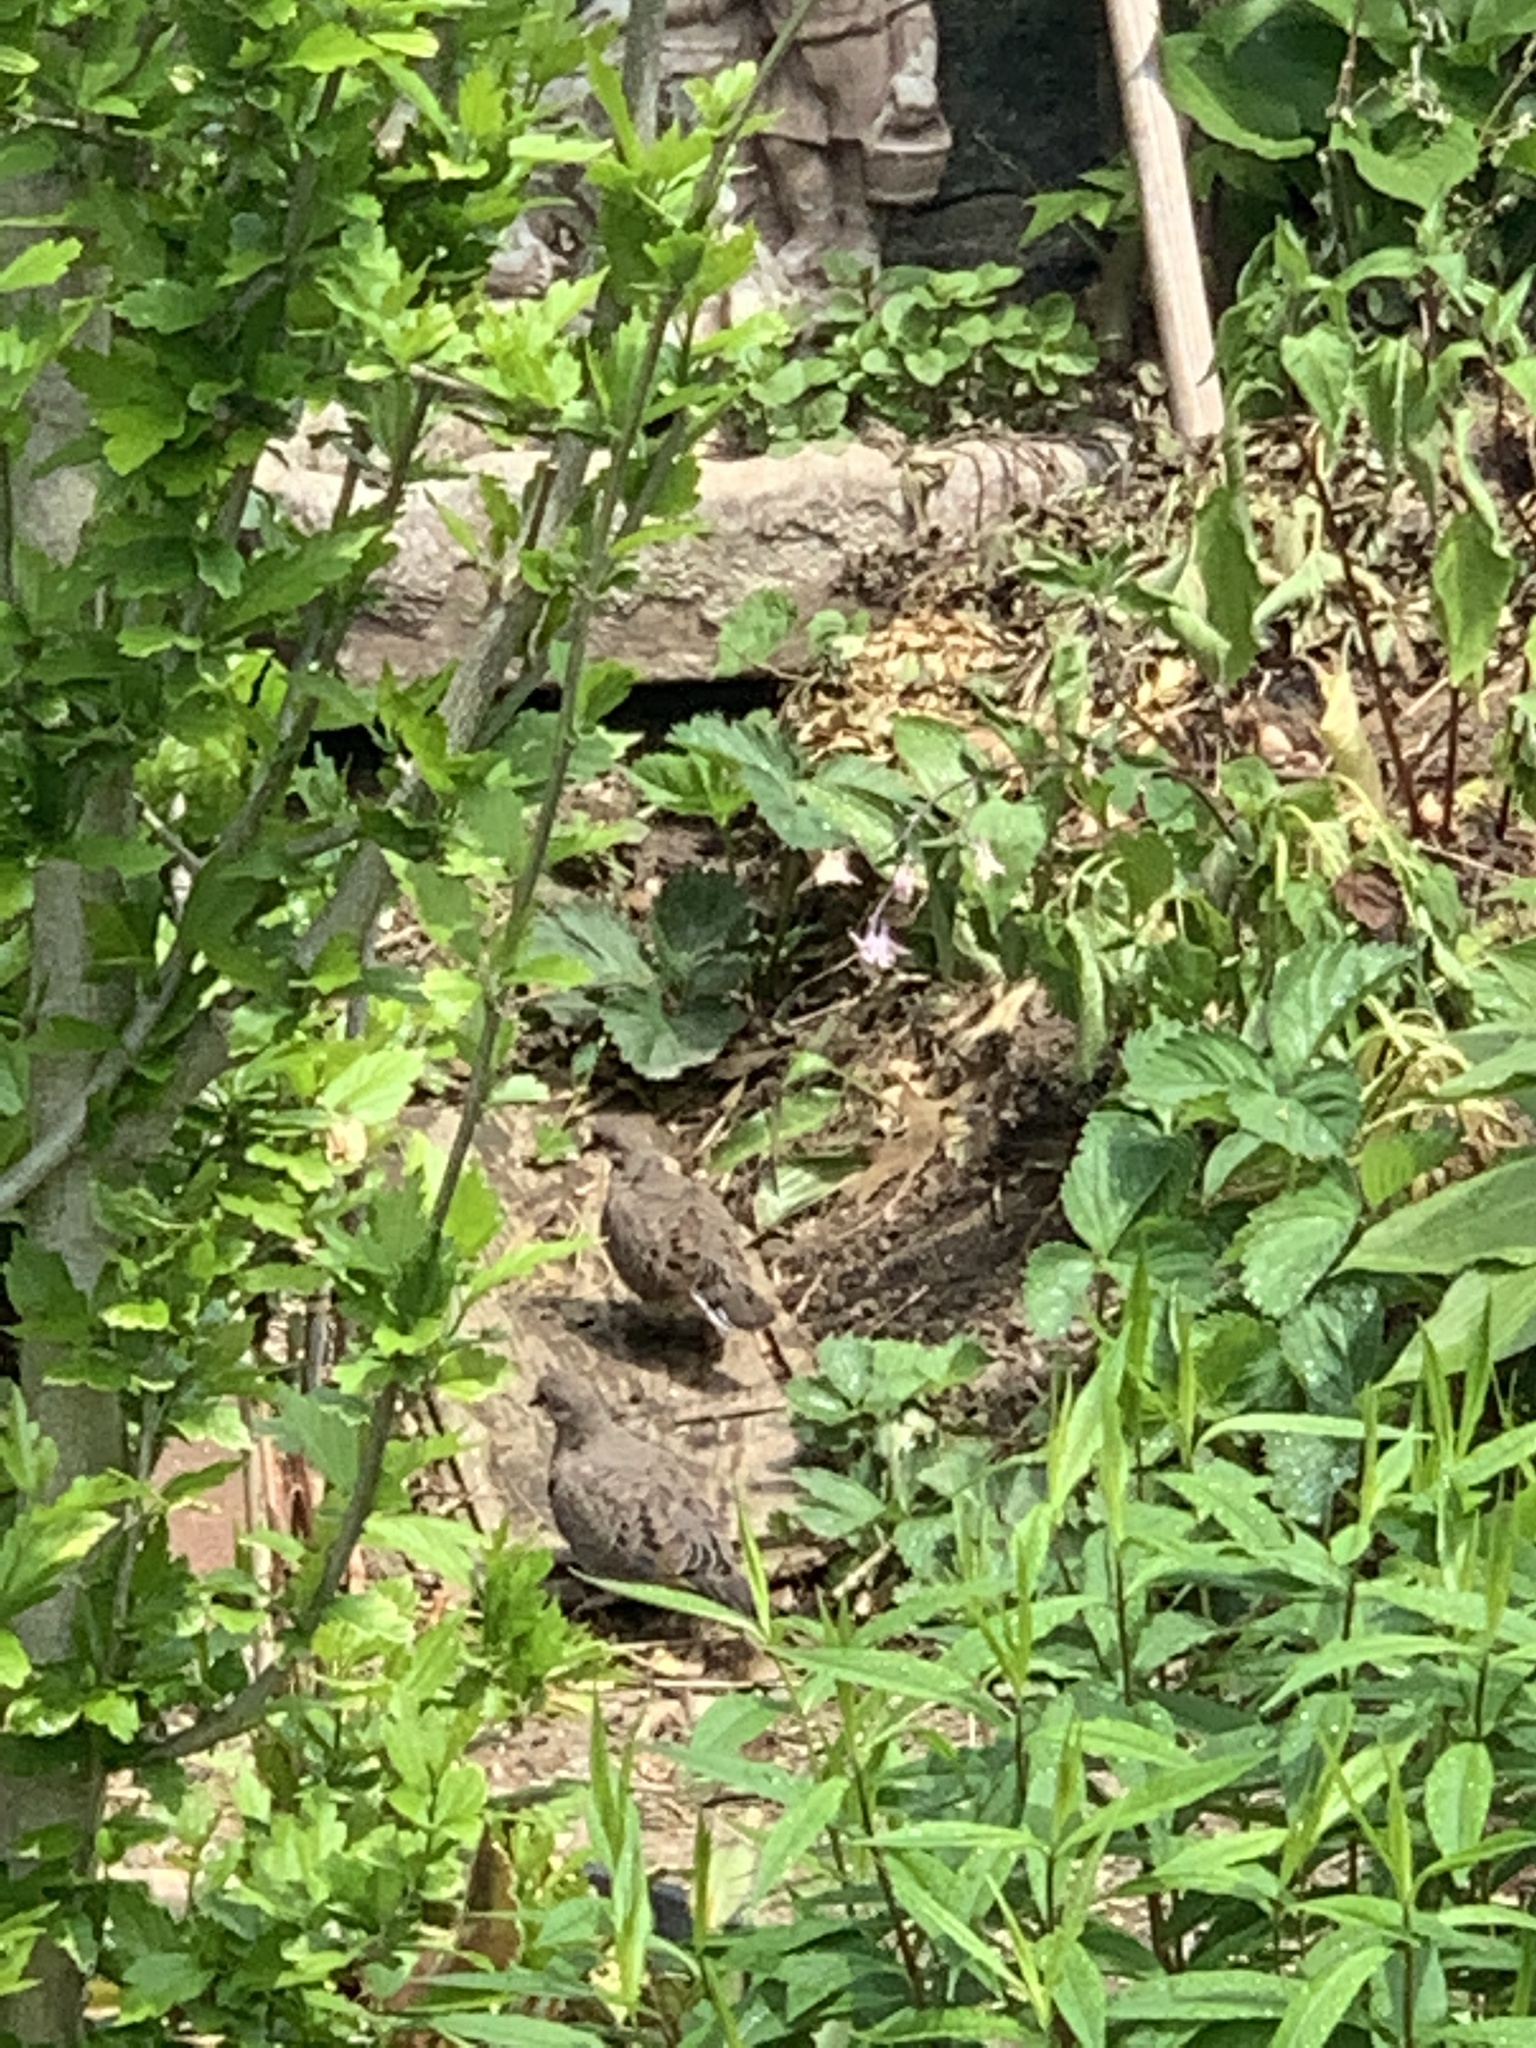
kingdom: Animalia
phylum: Chordata
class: Aves
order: Columbiformes
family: Columbidae
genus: Zenaida
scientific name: Zenaida macroura
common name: Mourning dove
